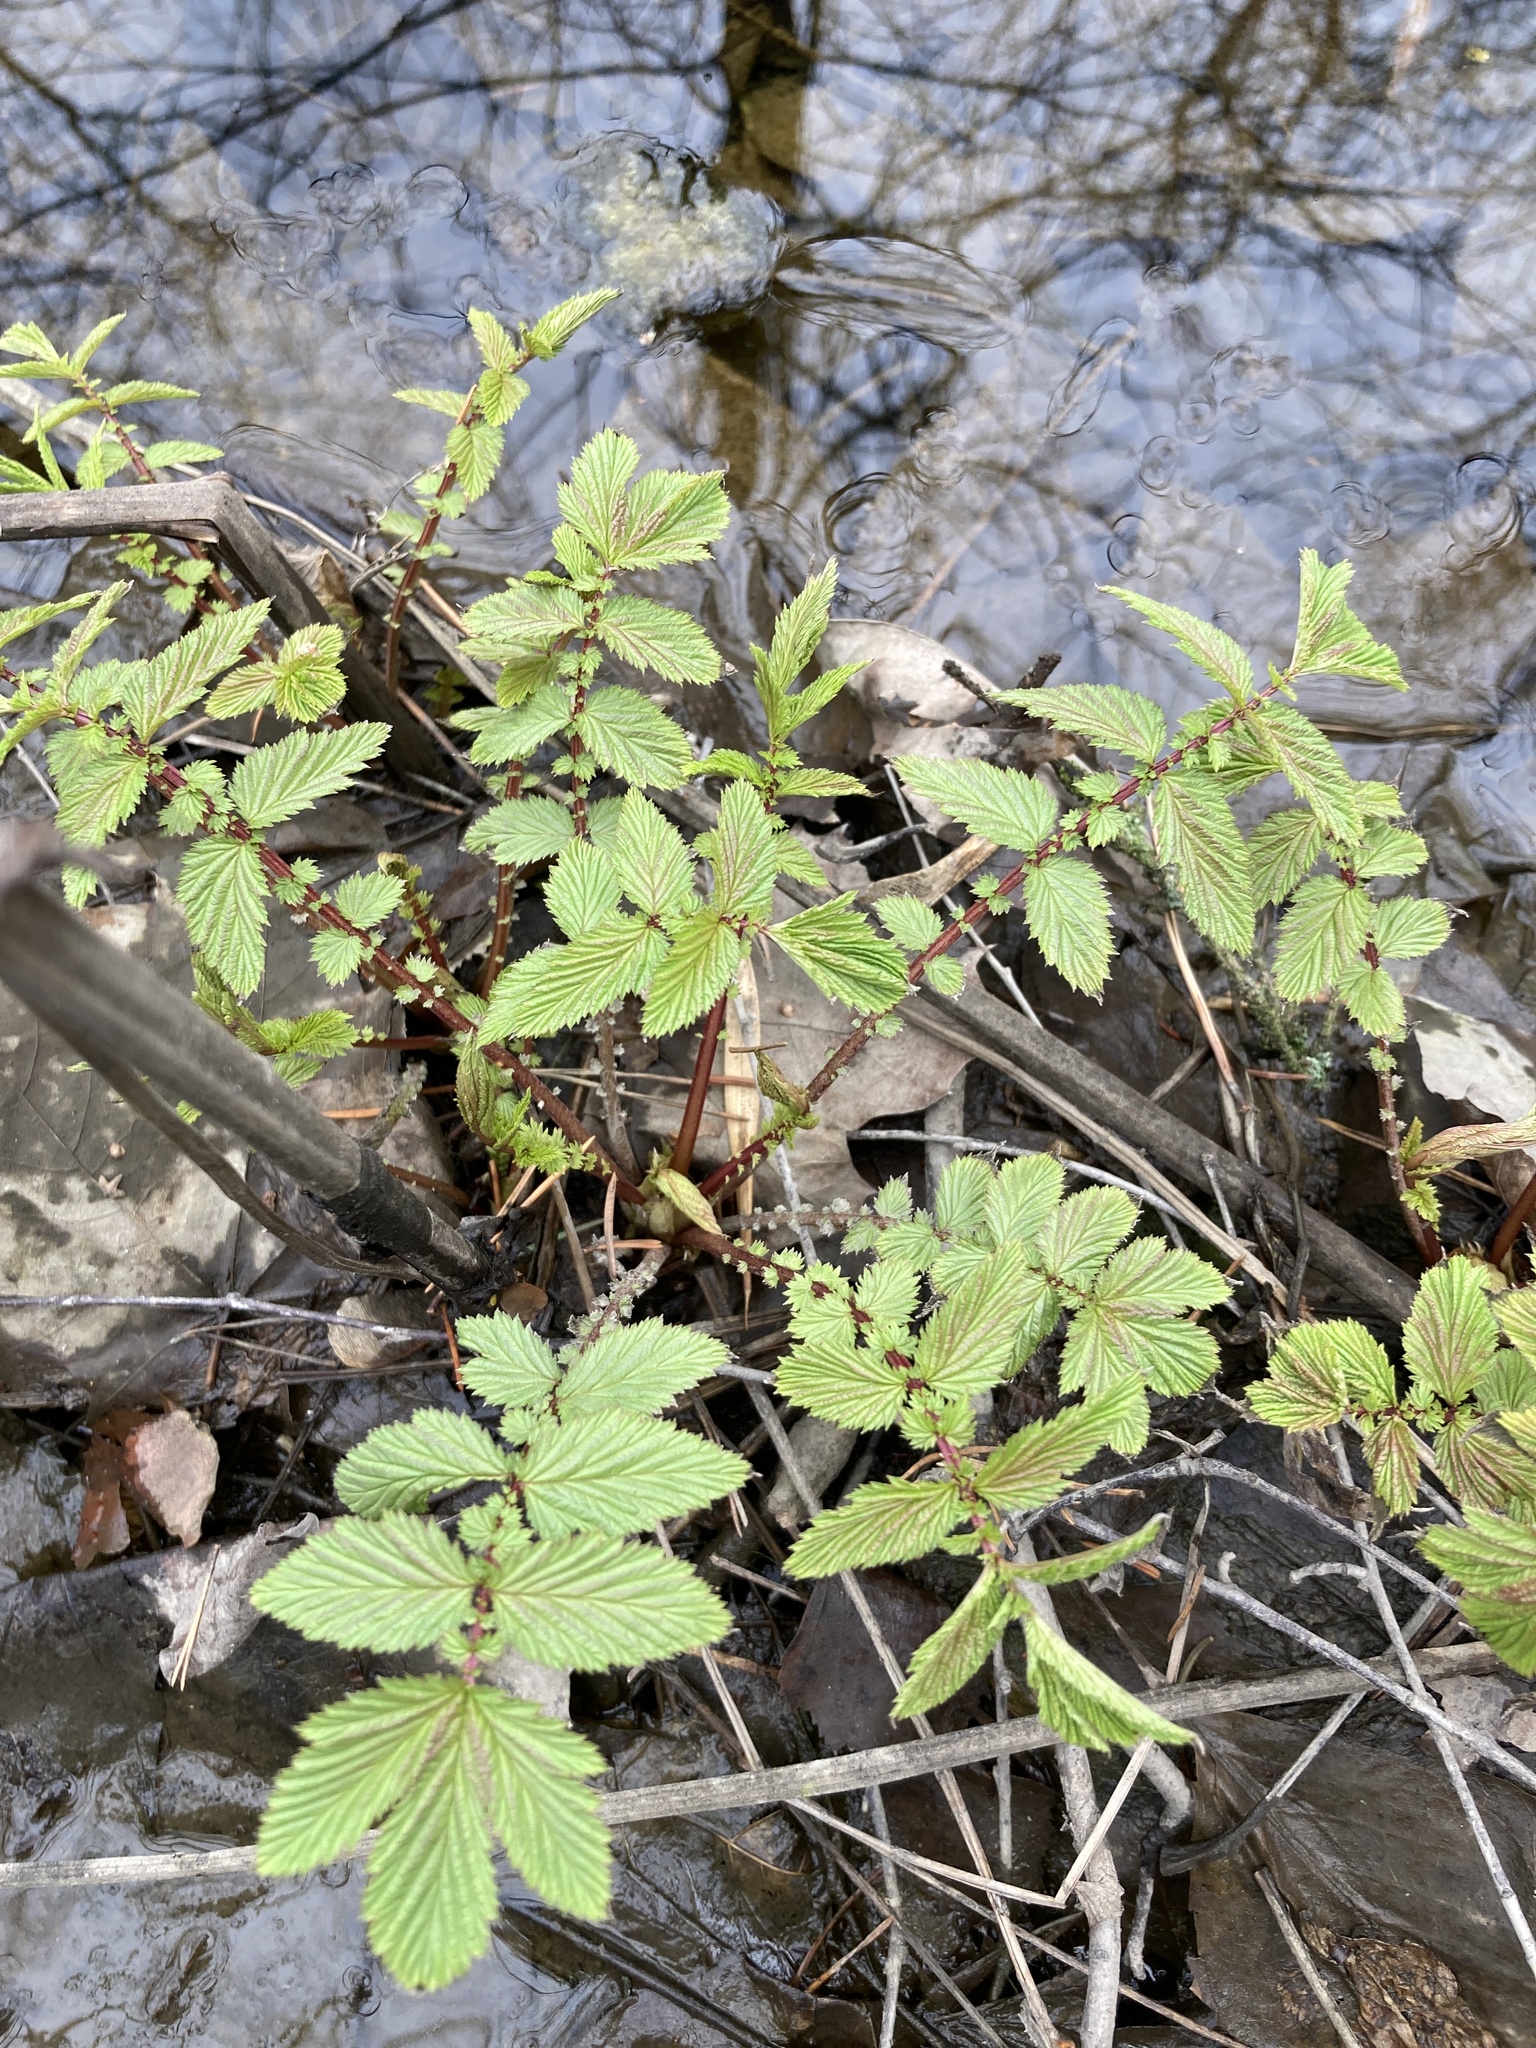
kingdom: Plantae
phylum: Tracheophyta
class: Magnoliopsida
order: Rosales
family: Rosaceae
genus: Filipendula
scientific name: Filipendula ulmaria
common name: Meadowsweet
